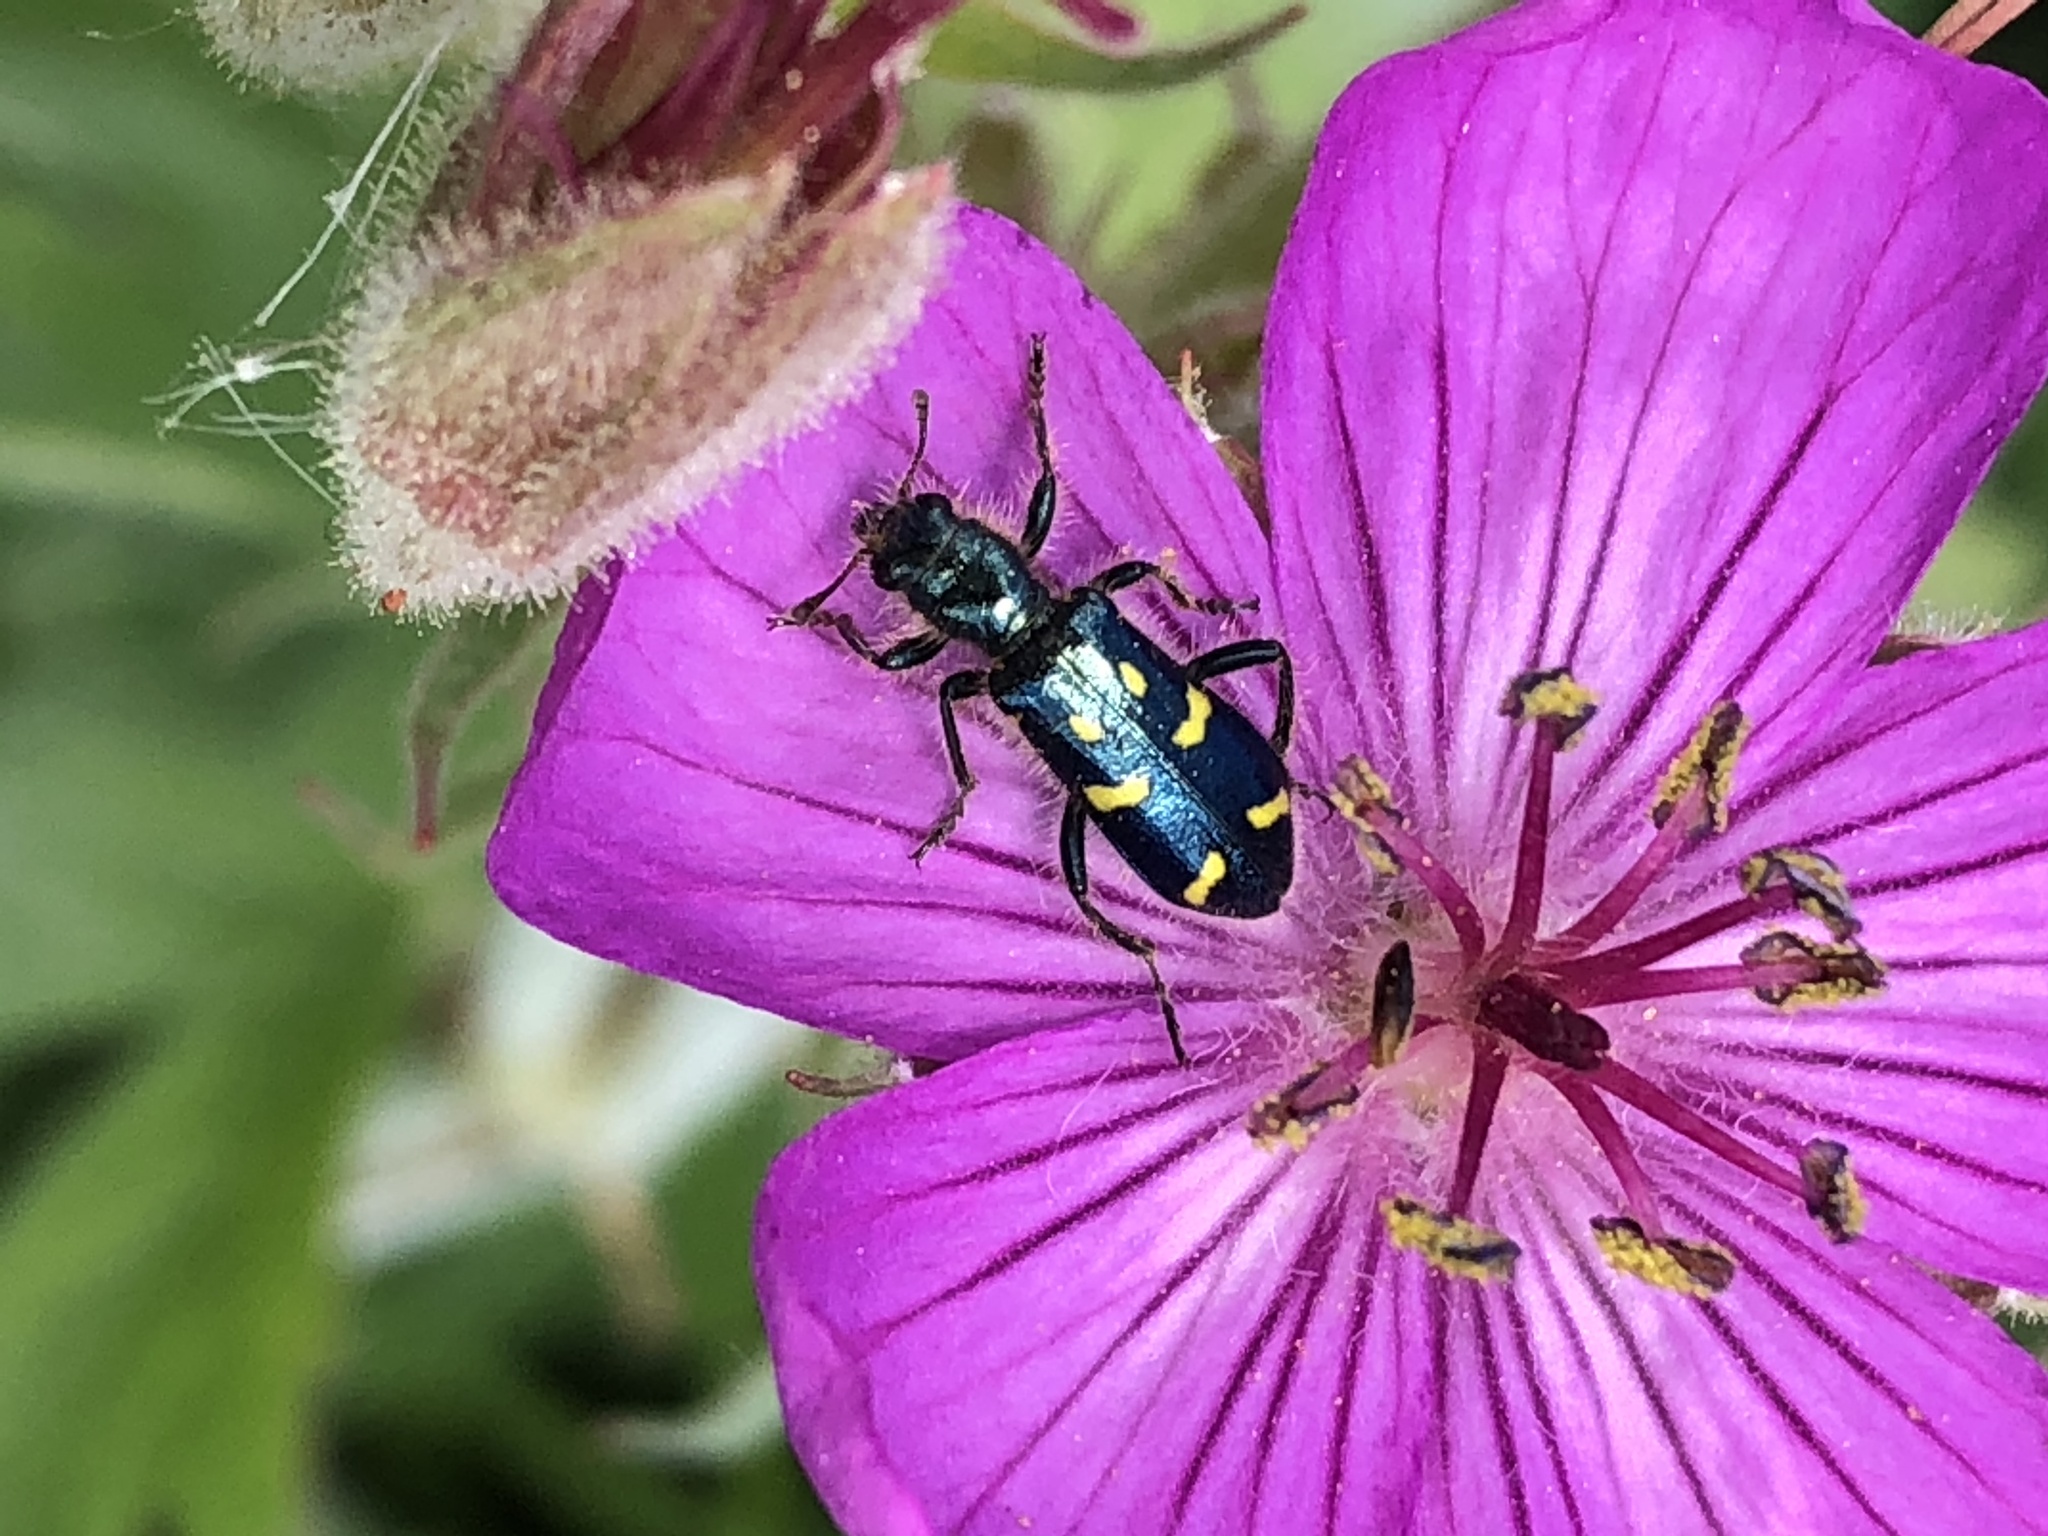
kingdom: Animalia
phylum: Arthropoda
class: Insecta
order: Coleoptera
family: Cleridae
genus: Trichodes
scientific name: Trichodes ornatus
